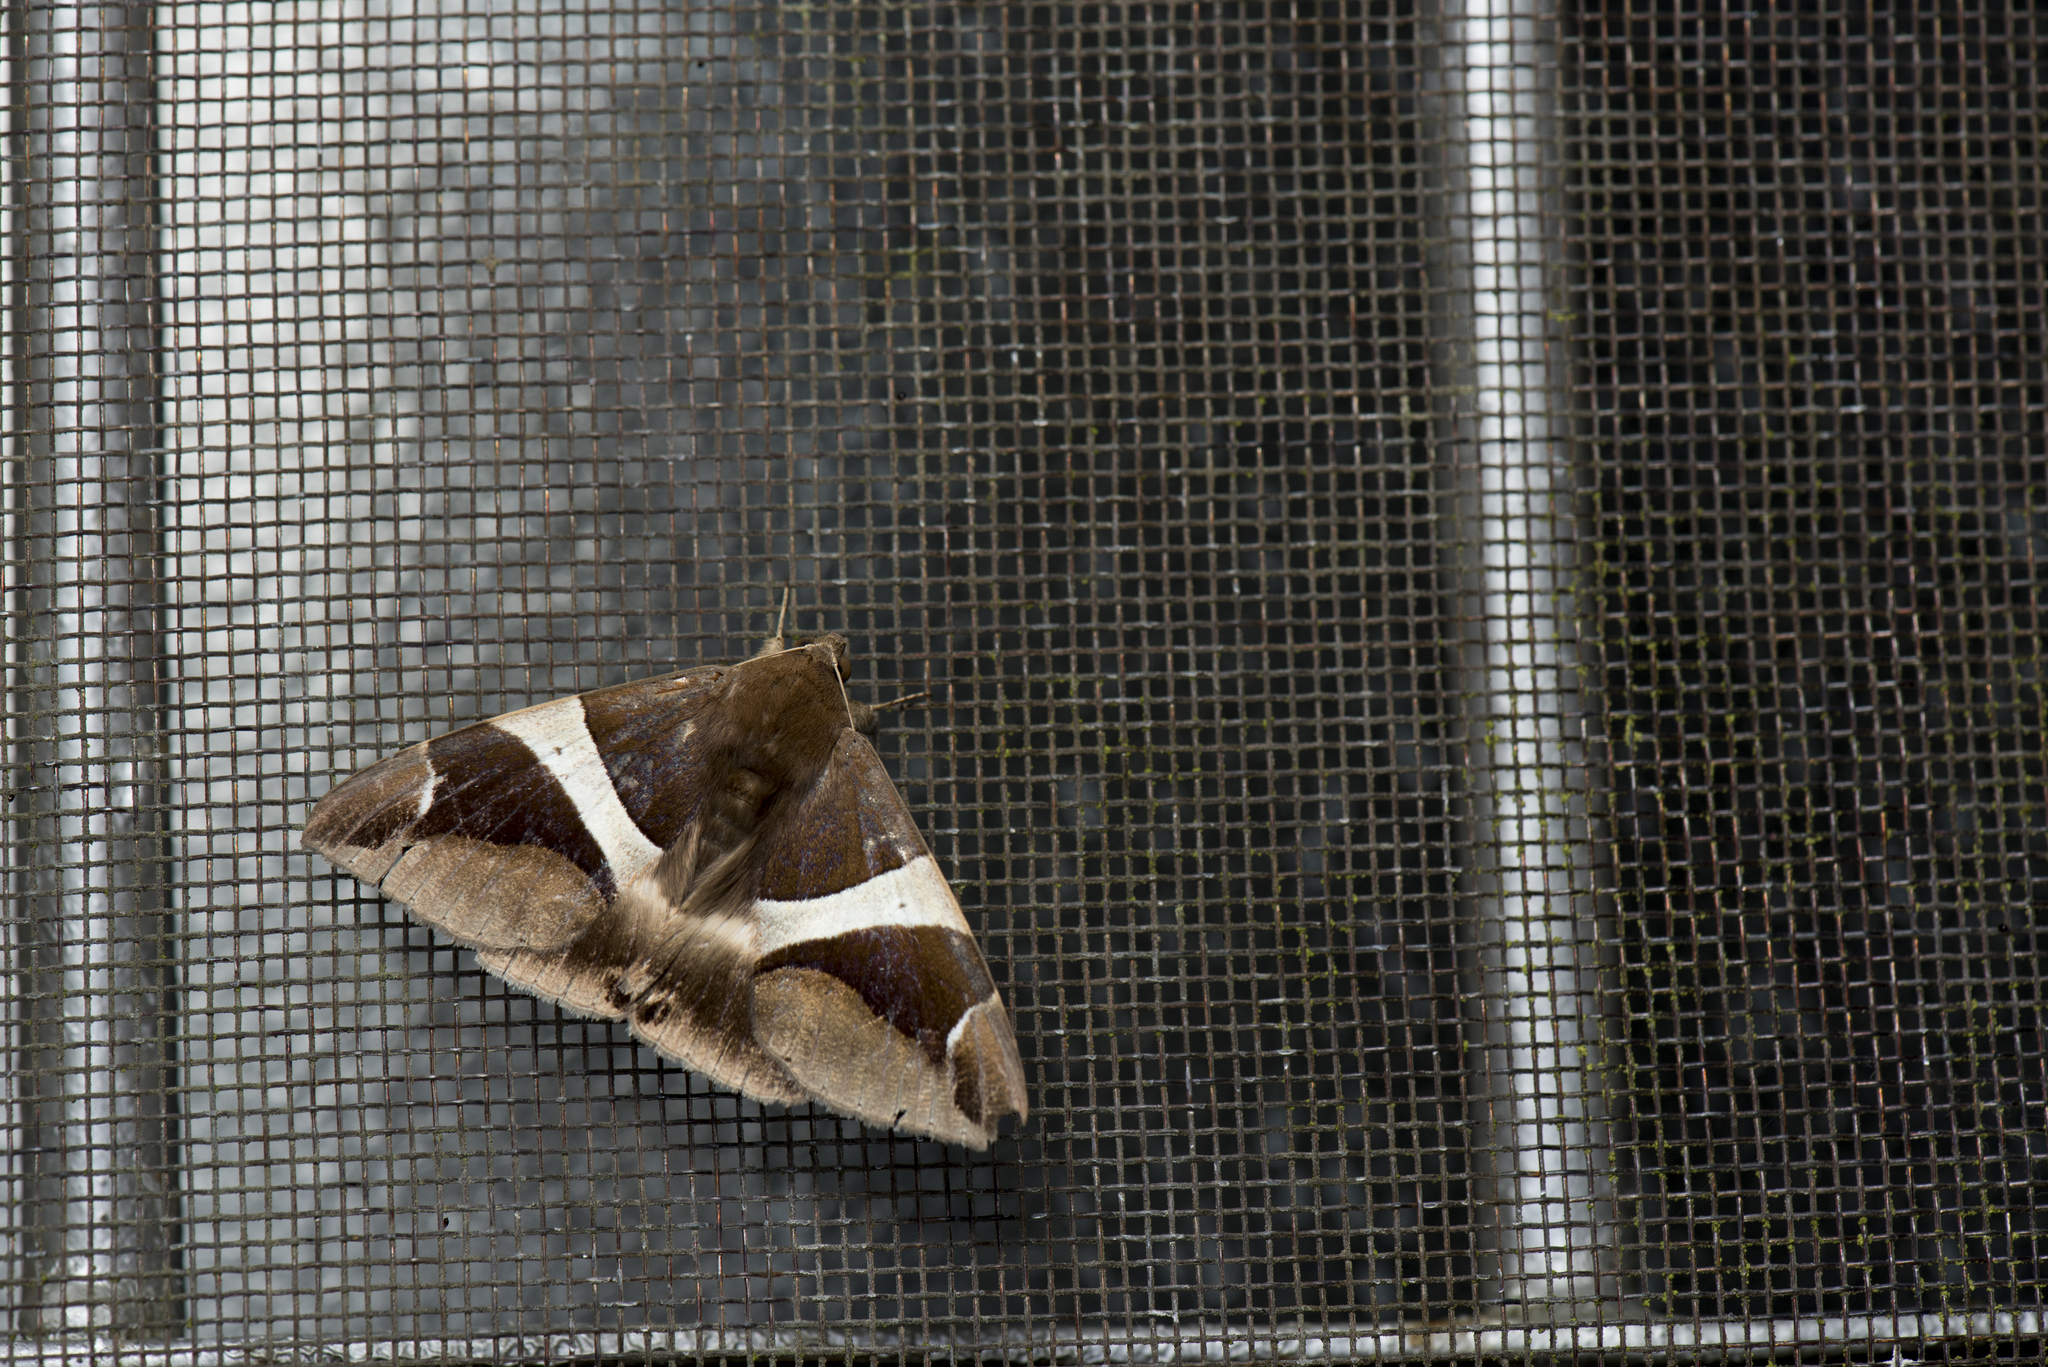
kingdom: Animalia
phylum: Arthropoda
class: Insecta
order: Lepidoptera
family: Erebidae
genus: Dysgonia
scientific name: Dysgonia praetermissa
